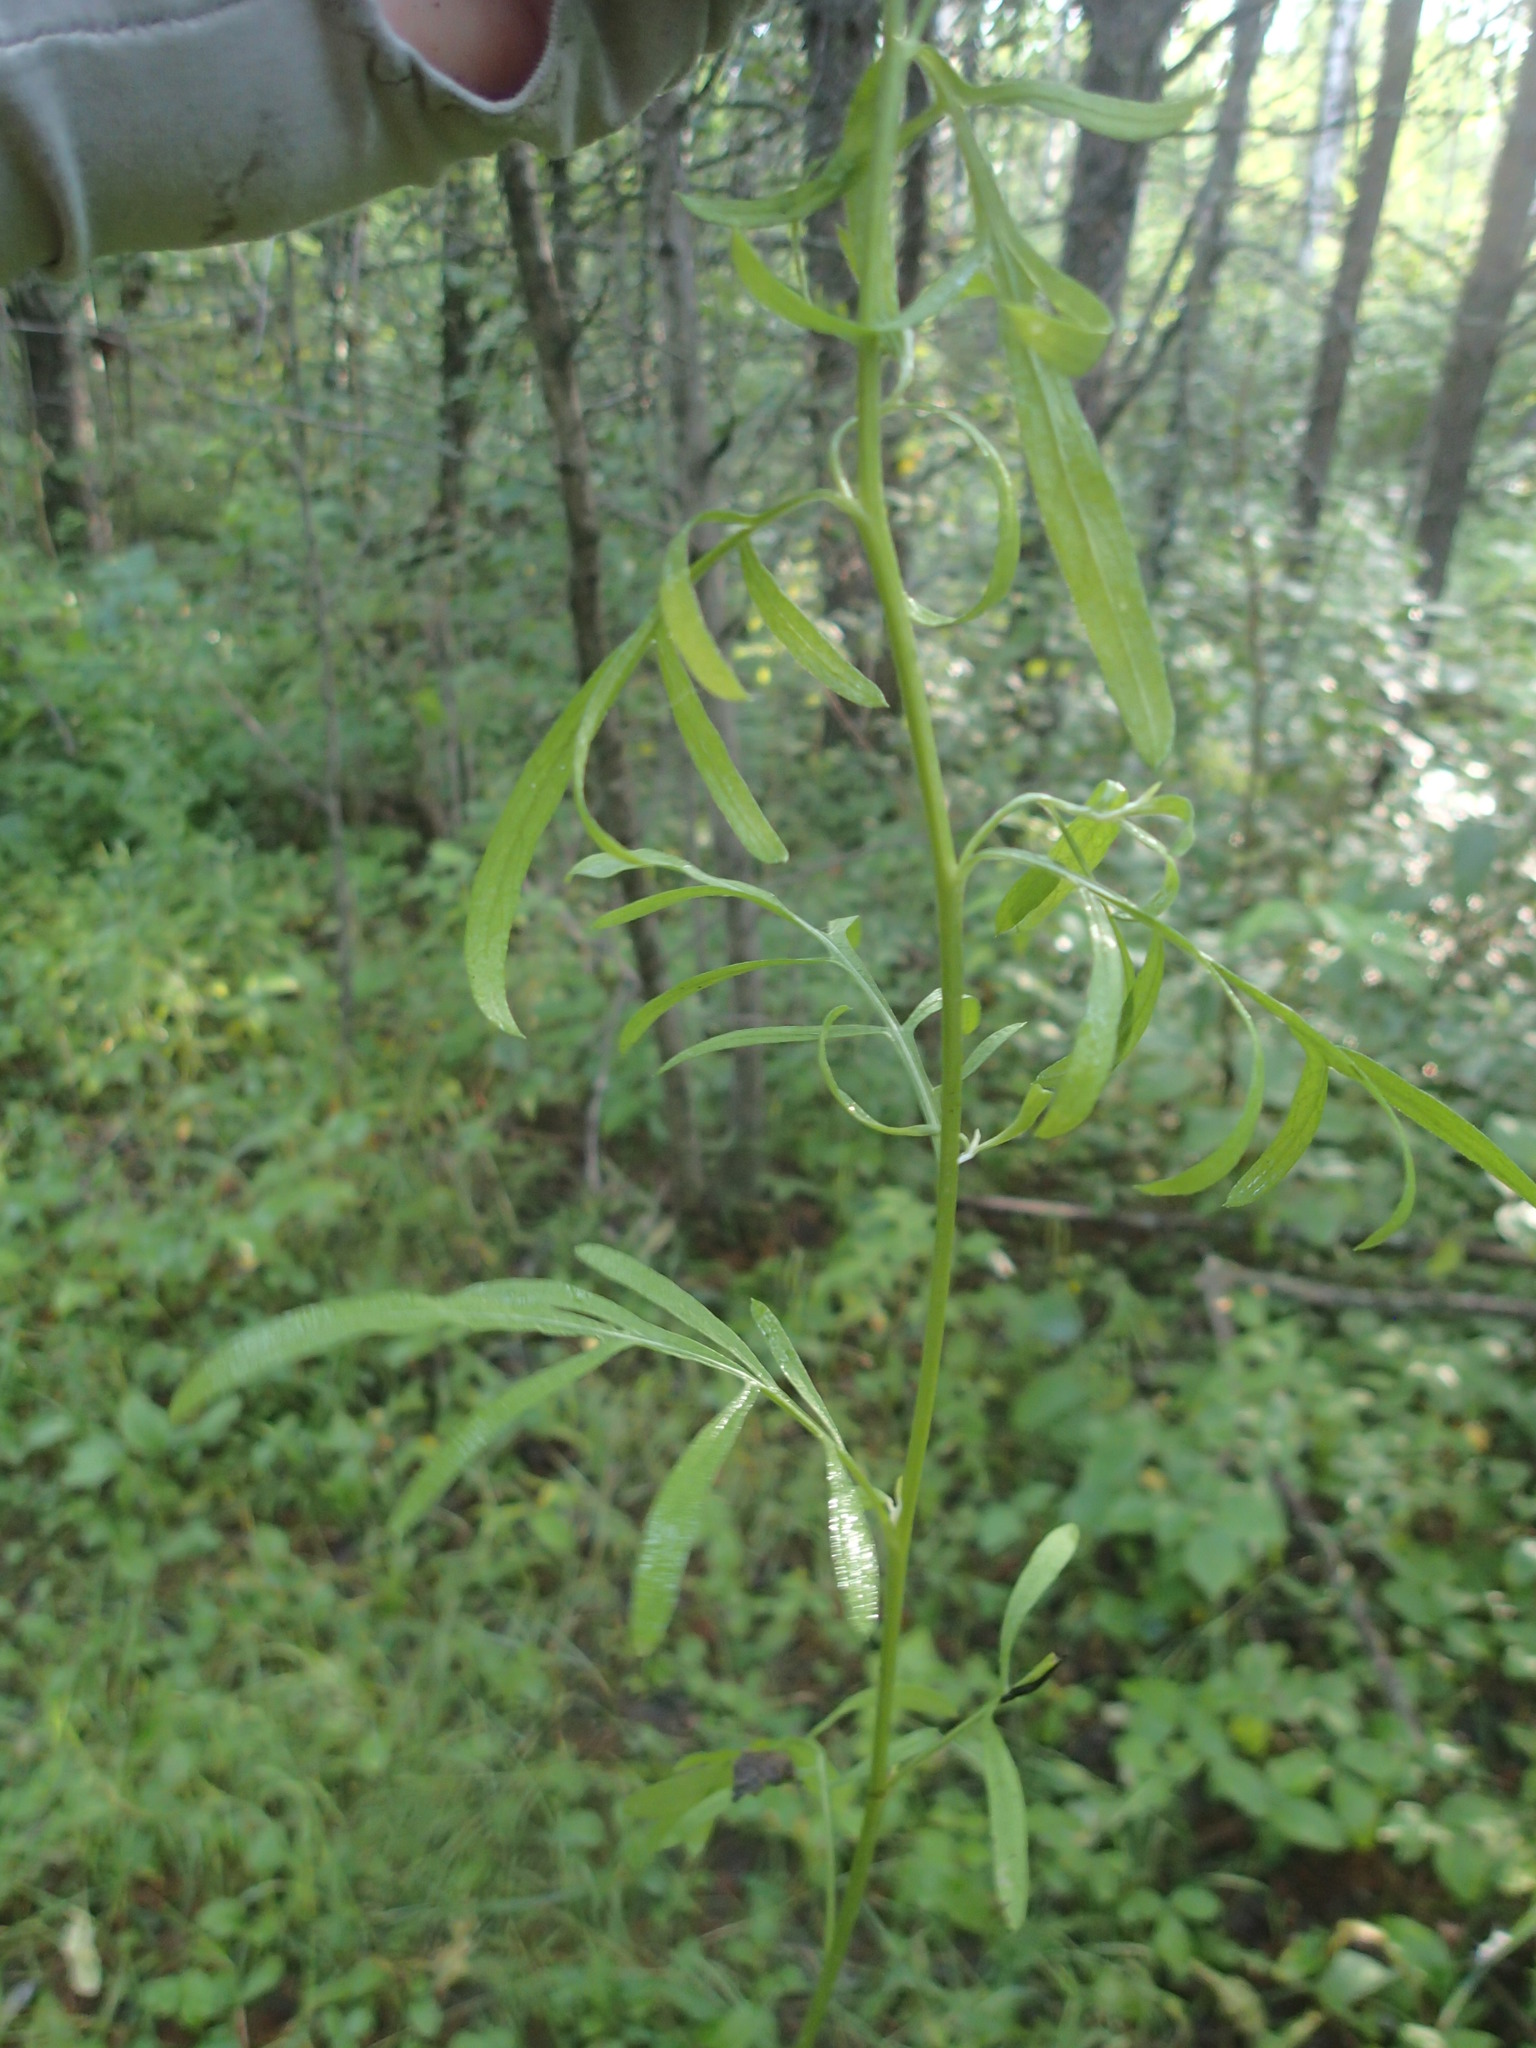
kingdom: Plantae
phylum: Tracheophyta
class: Magnoliopsida
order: Asterales
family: Asteraceae
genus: Centaurea
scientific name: Centaurea stoebe
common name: Spotted knapweed
